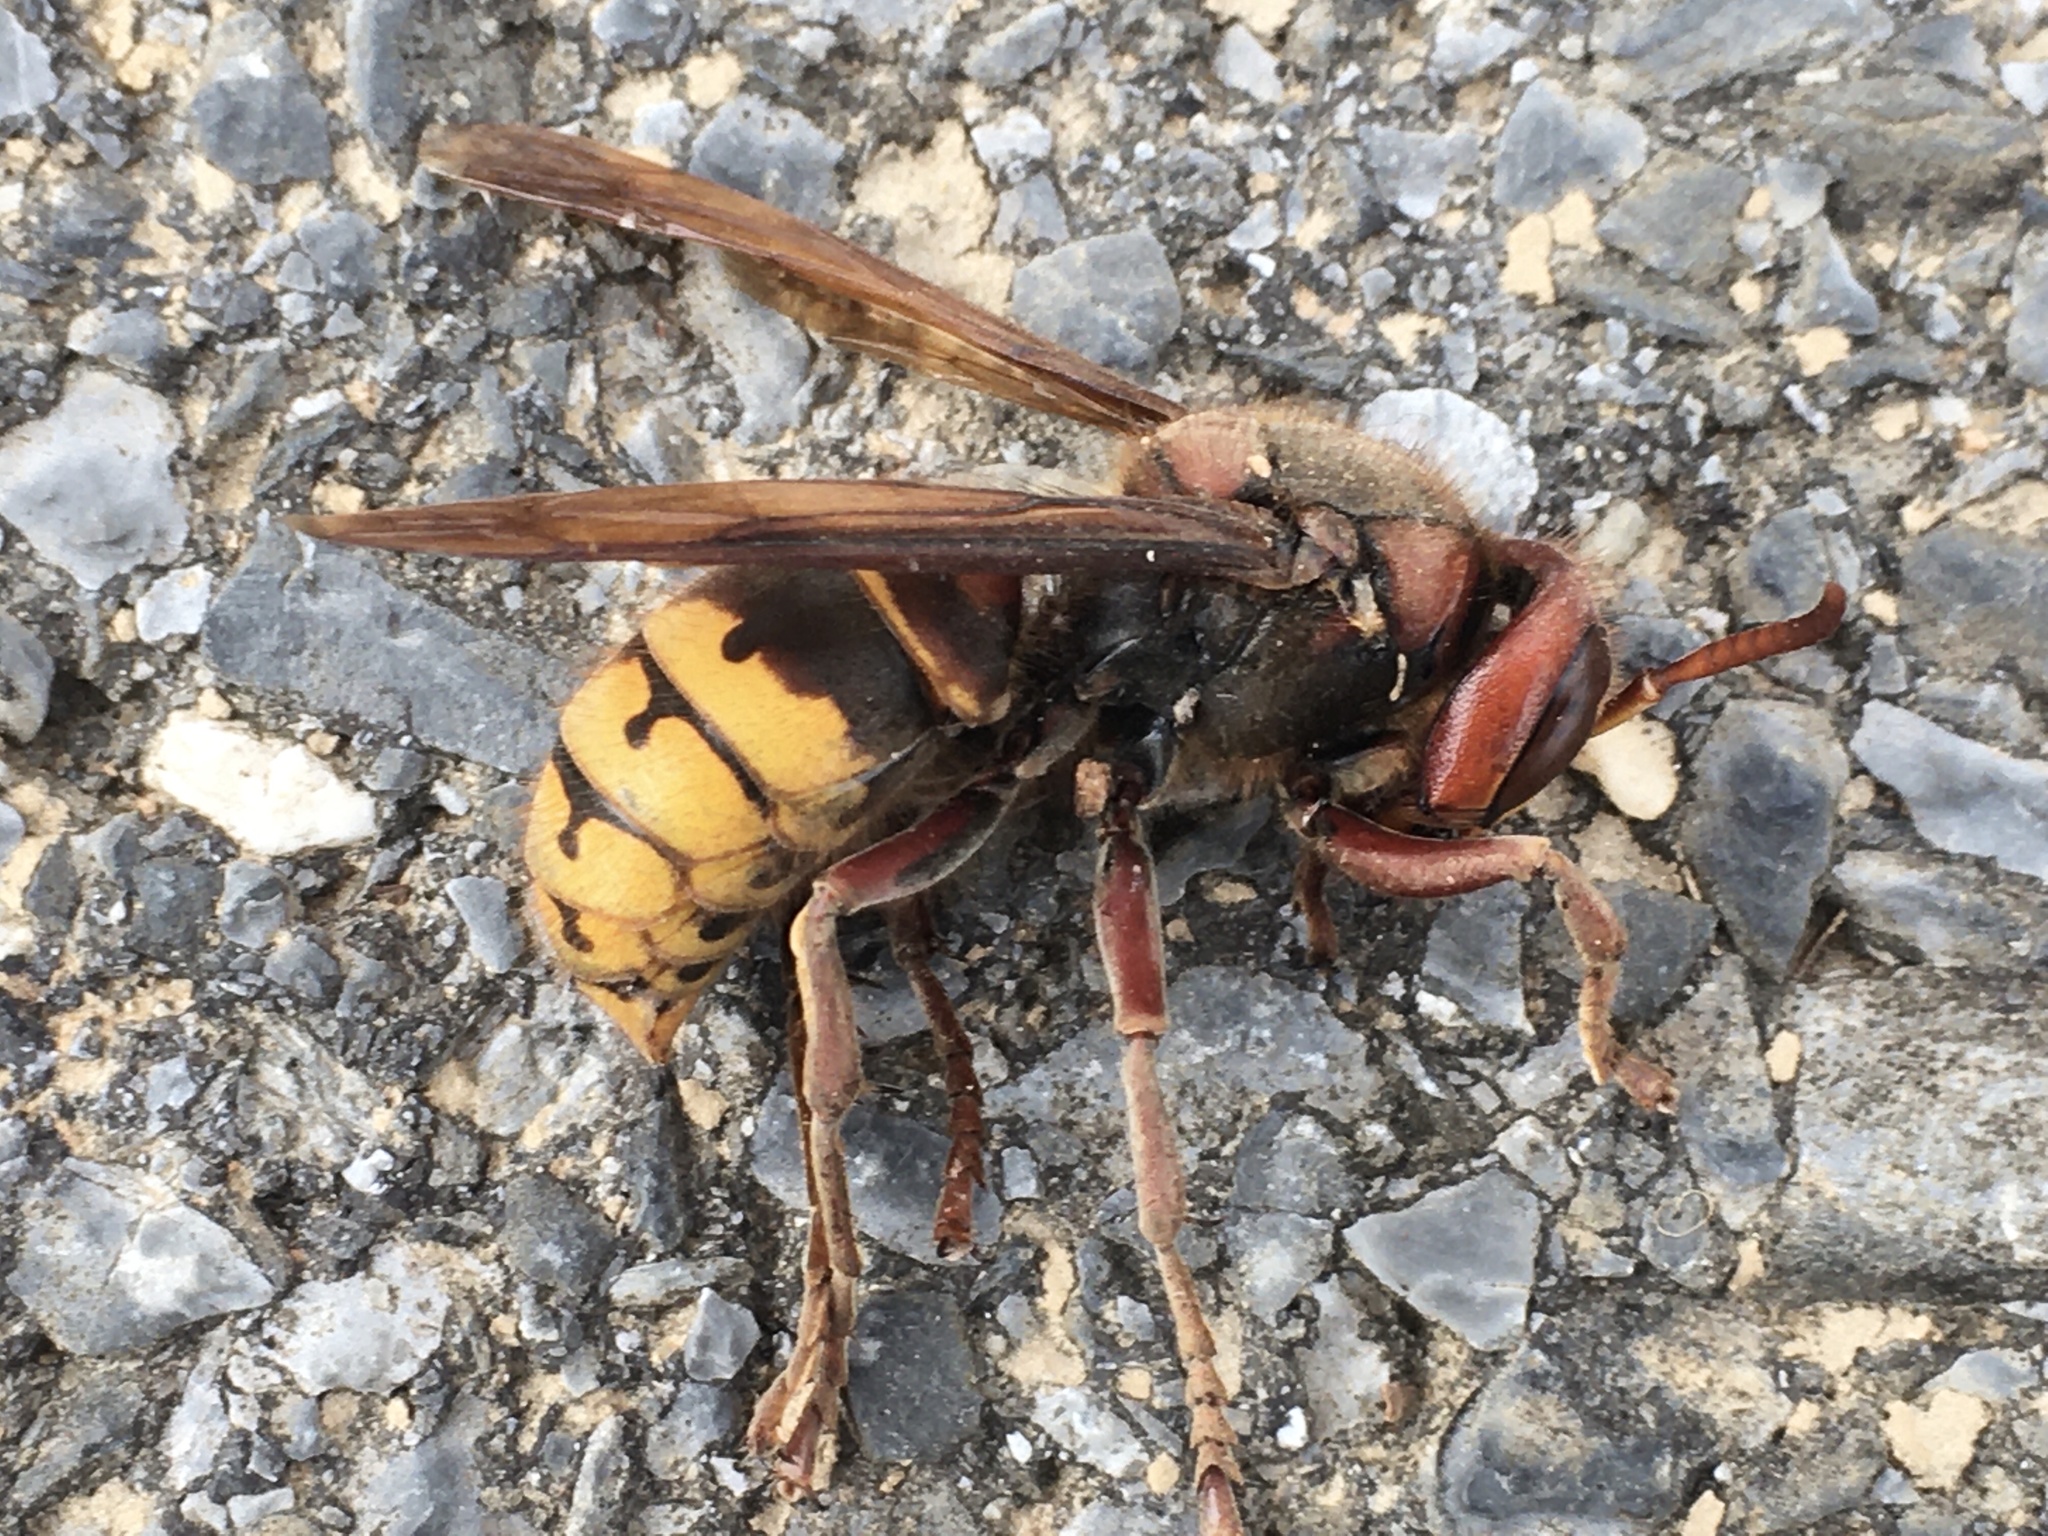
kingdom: Animalia
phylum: Arthropoda
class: Insecta
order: Hymenoptera
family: Vespidae
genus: Vespa
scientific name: Vespa crabro
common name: Hornet
